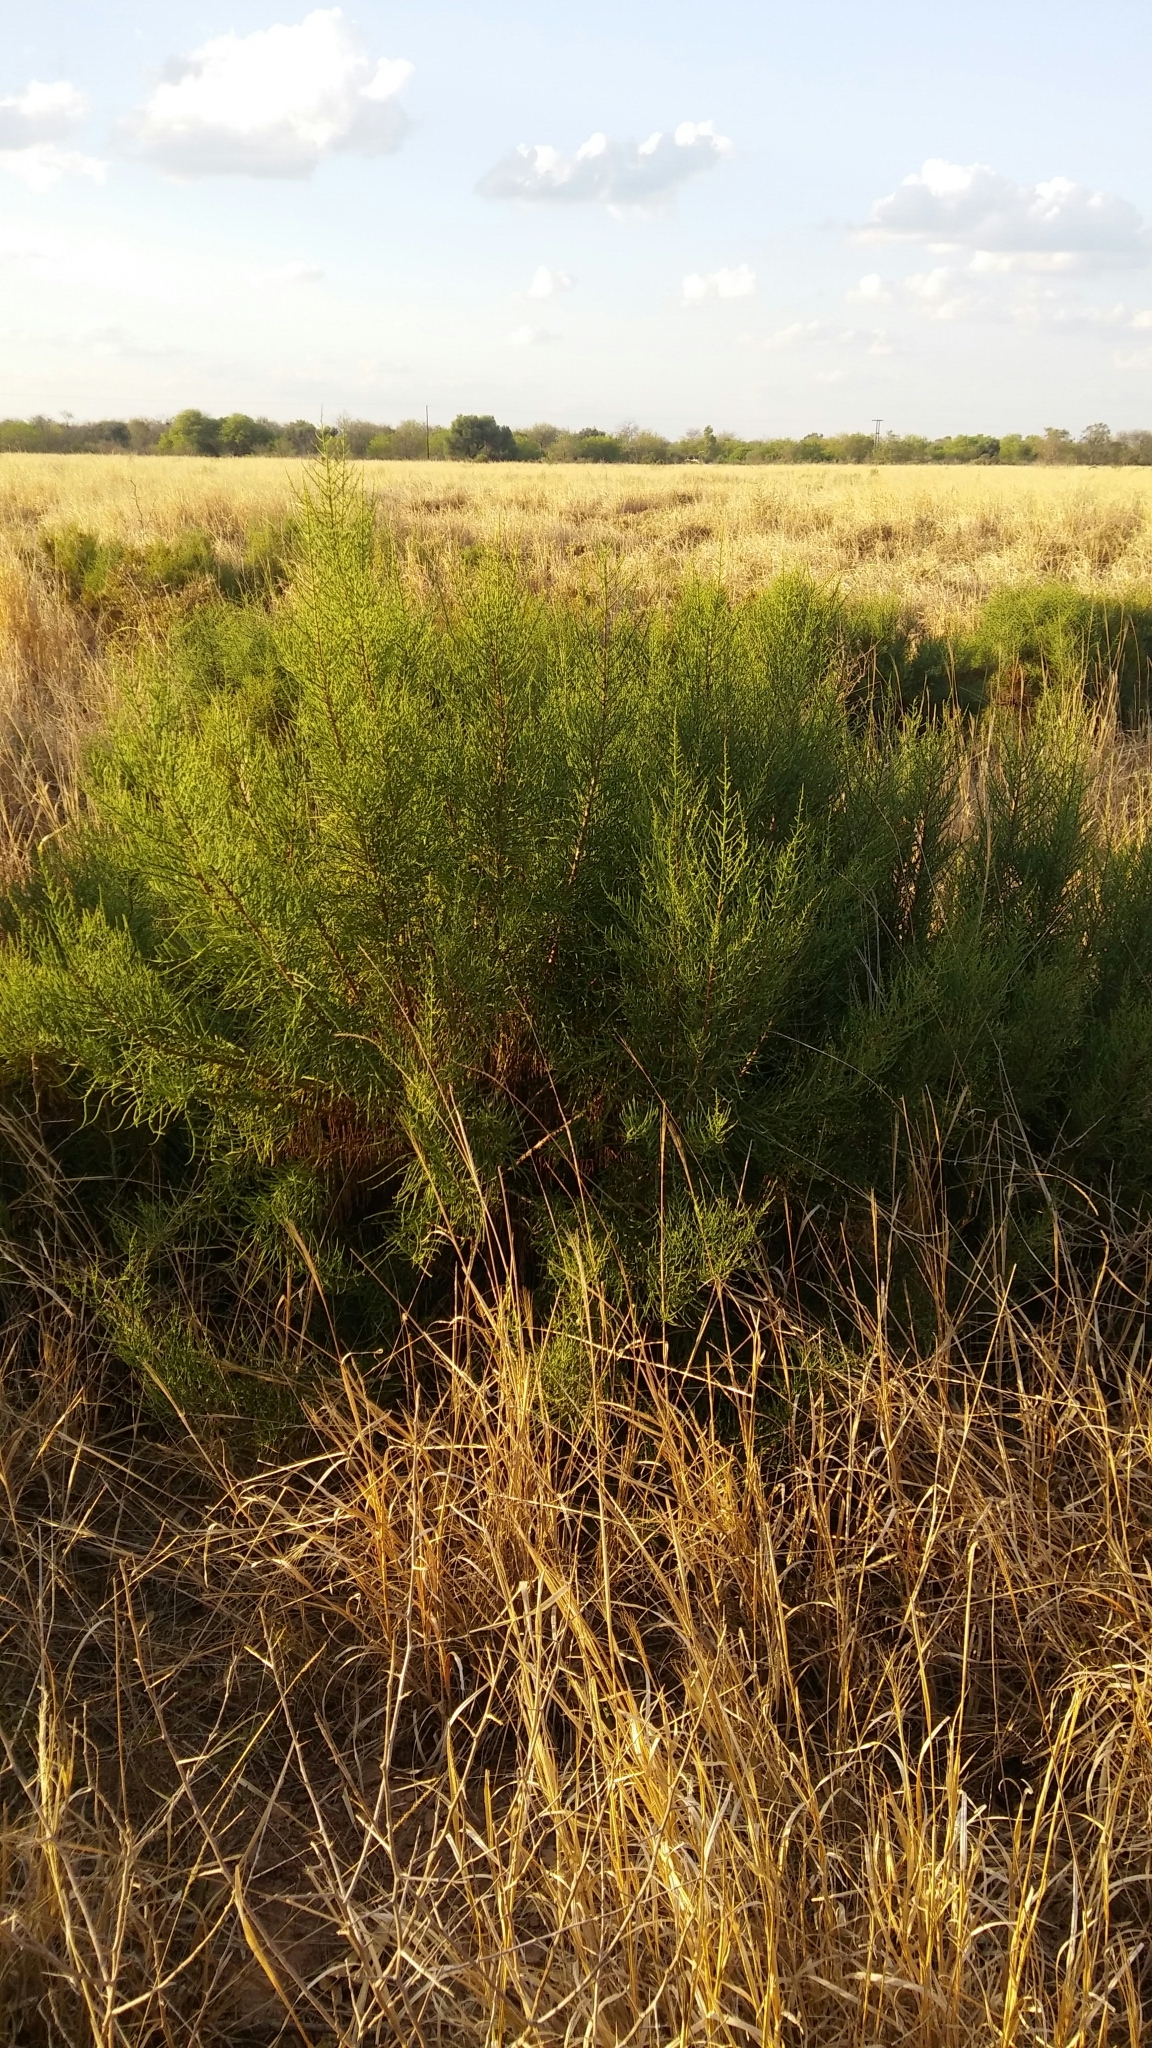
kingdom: Plantae
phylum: Tracheophyta
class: Magnoliopsida
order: Caryophyllales
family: Amaranthaceae
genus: Allenrolfea
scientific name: Allenrolfea vaginata
